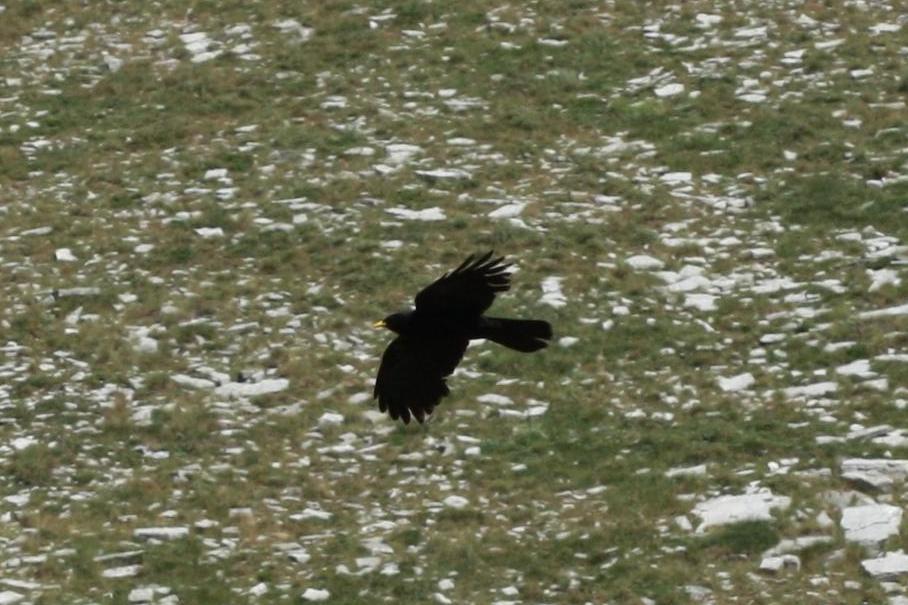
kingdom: Animalia
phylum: Chordata
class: Aves
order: Passeriformes
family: Corvidae
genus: Pyrrhocorax
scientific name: Pyrrhocorax graculus
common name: Alpine chough
